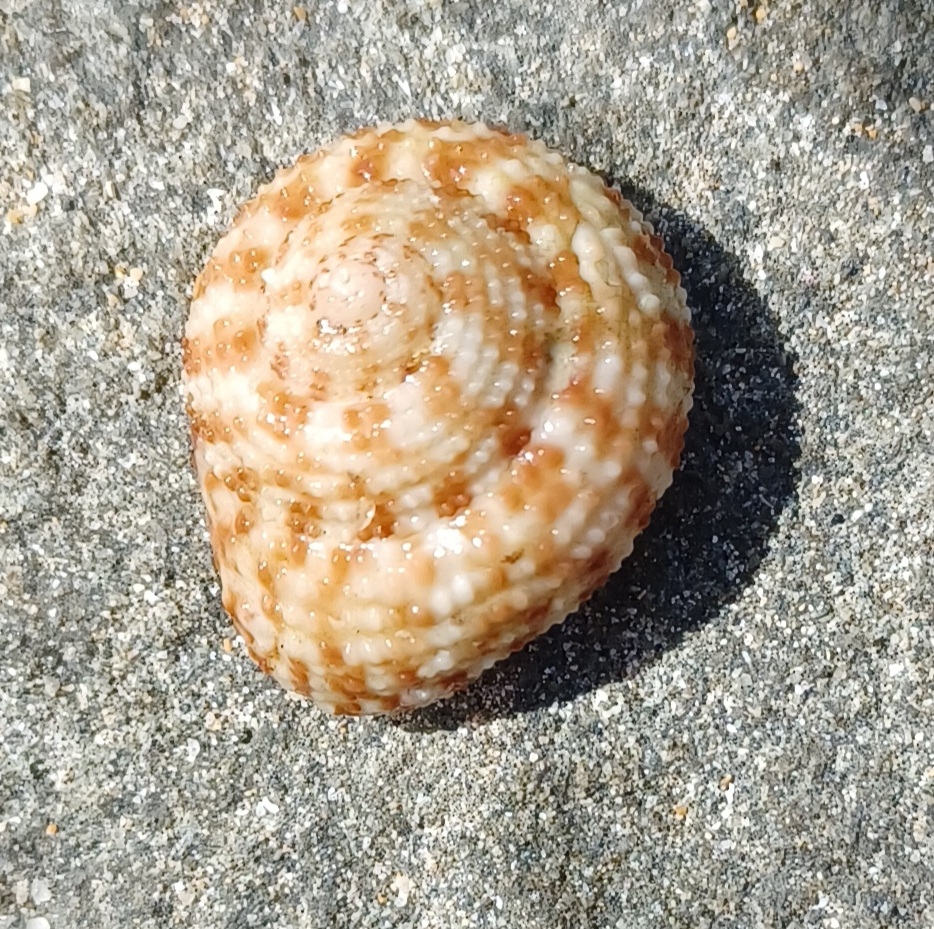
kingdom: Animalia
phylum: Mollusca
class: Gastropoda
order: Trochida
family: Trochidae
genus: Clanculus
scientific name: Clanculus flagellatus
